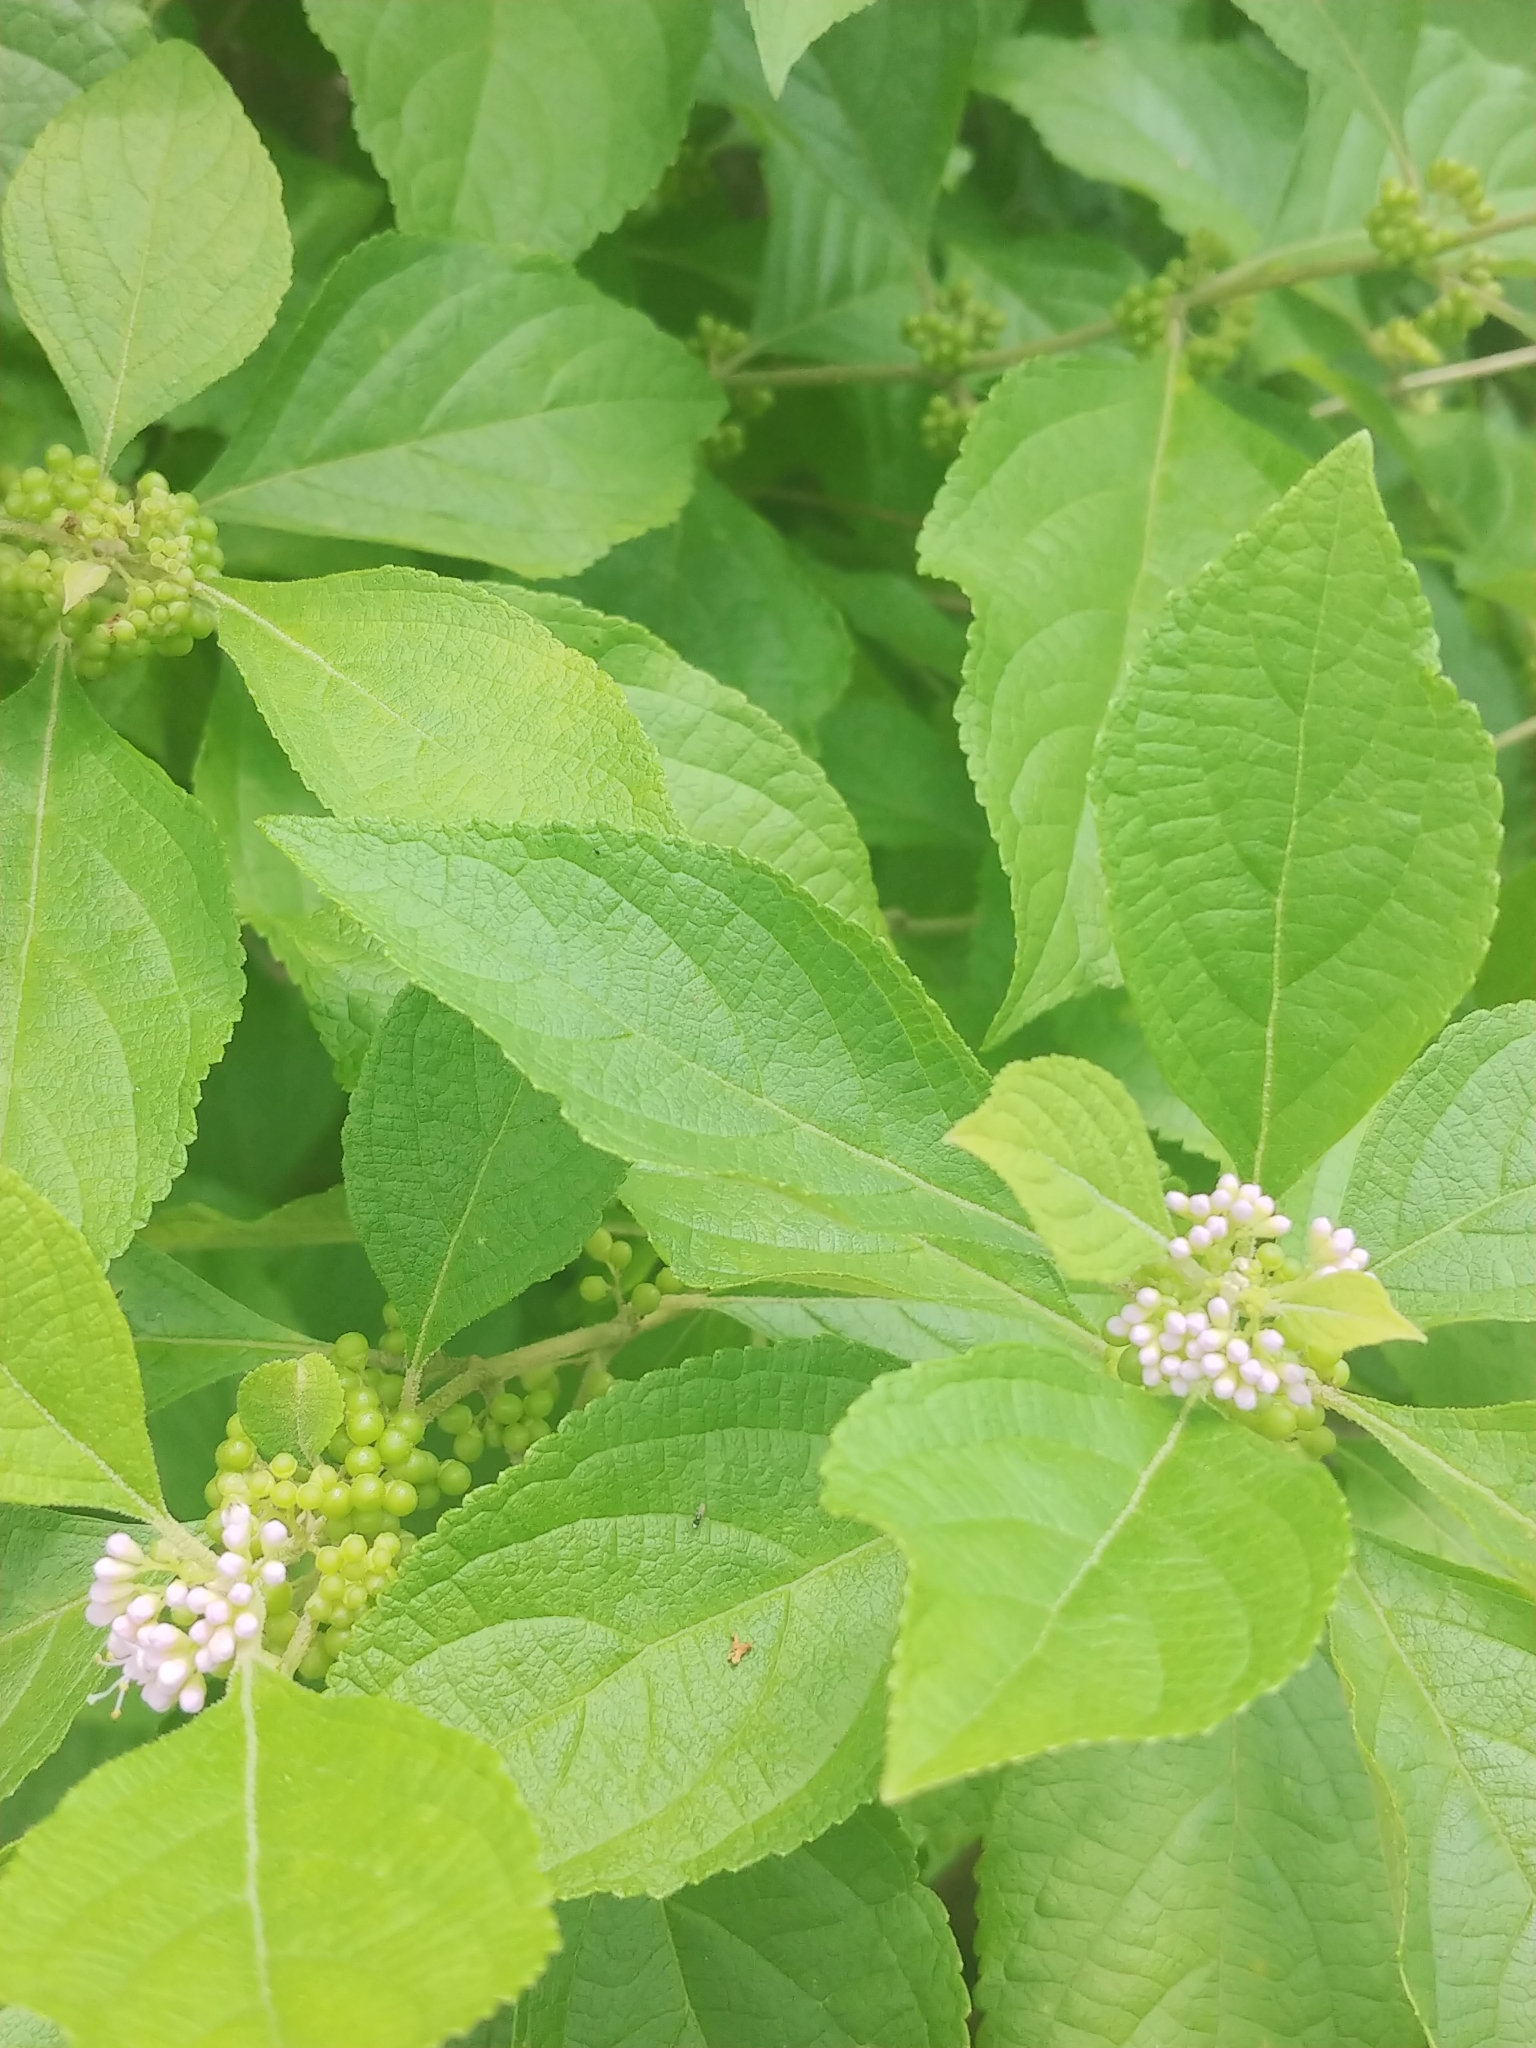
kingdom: Plantae
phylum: Tracheophyta
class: Magnoliopsida
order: Lamiales
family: Lamiaceae
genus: Callicarpa
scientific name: Callicarpa americana
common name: American beautyberry
